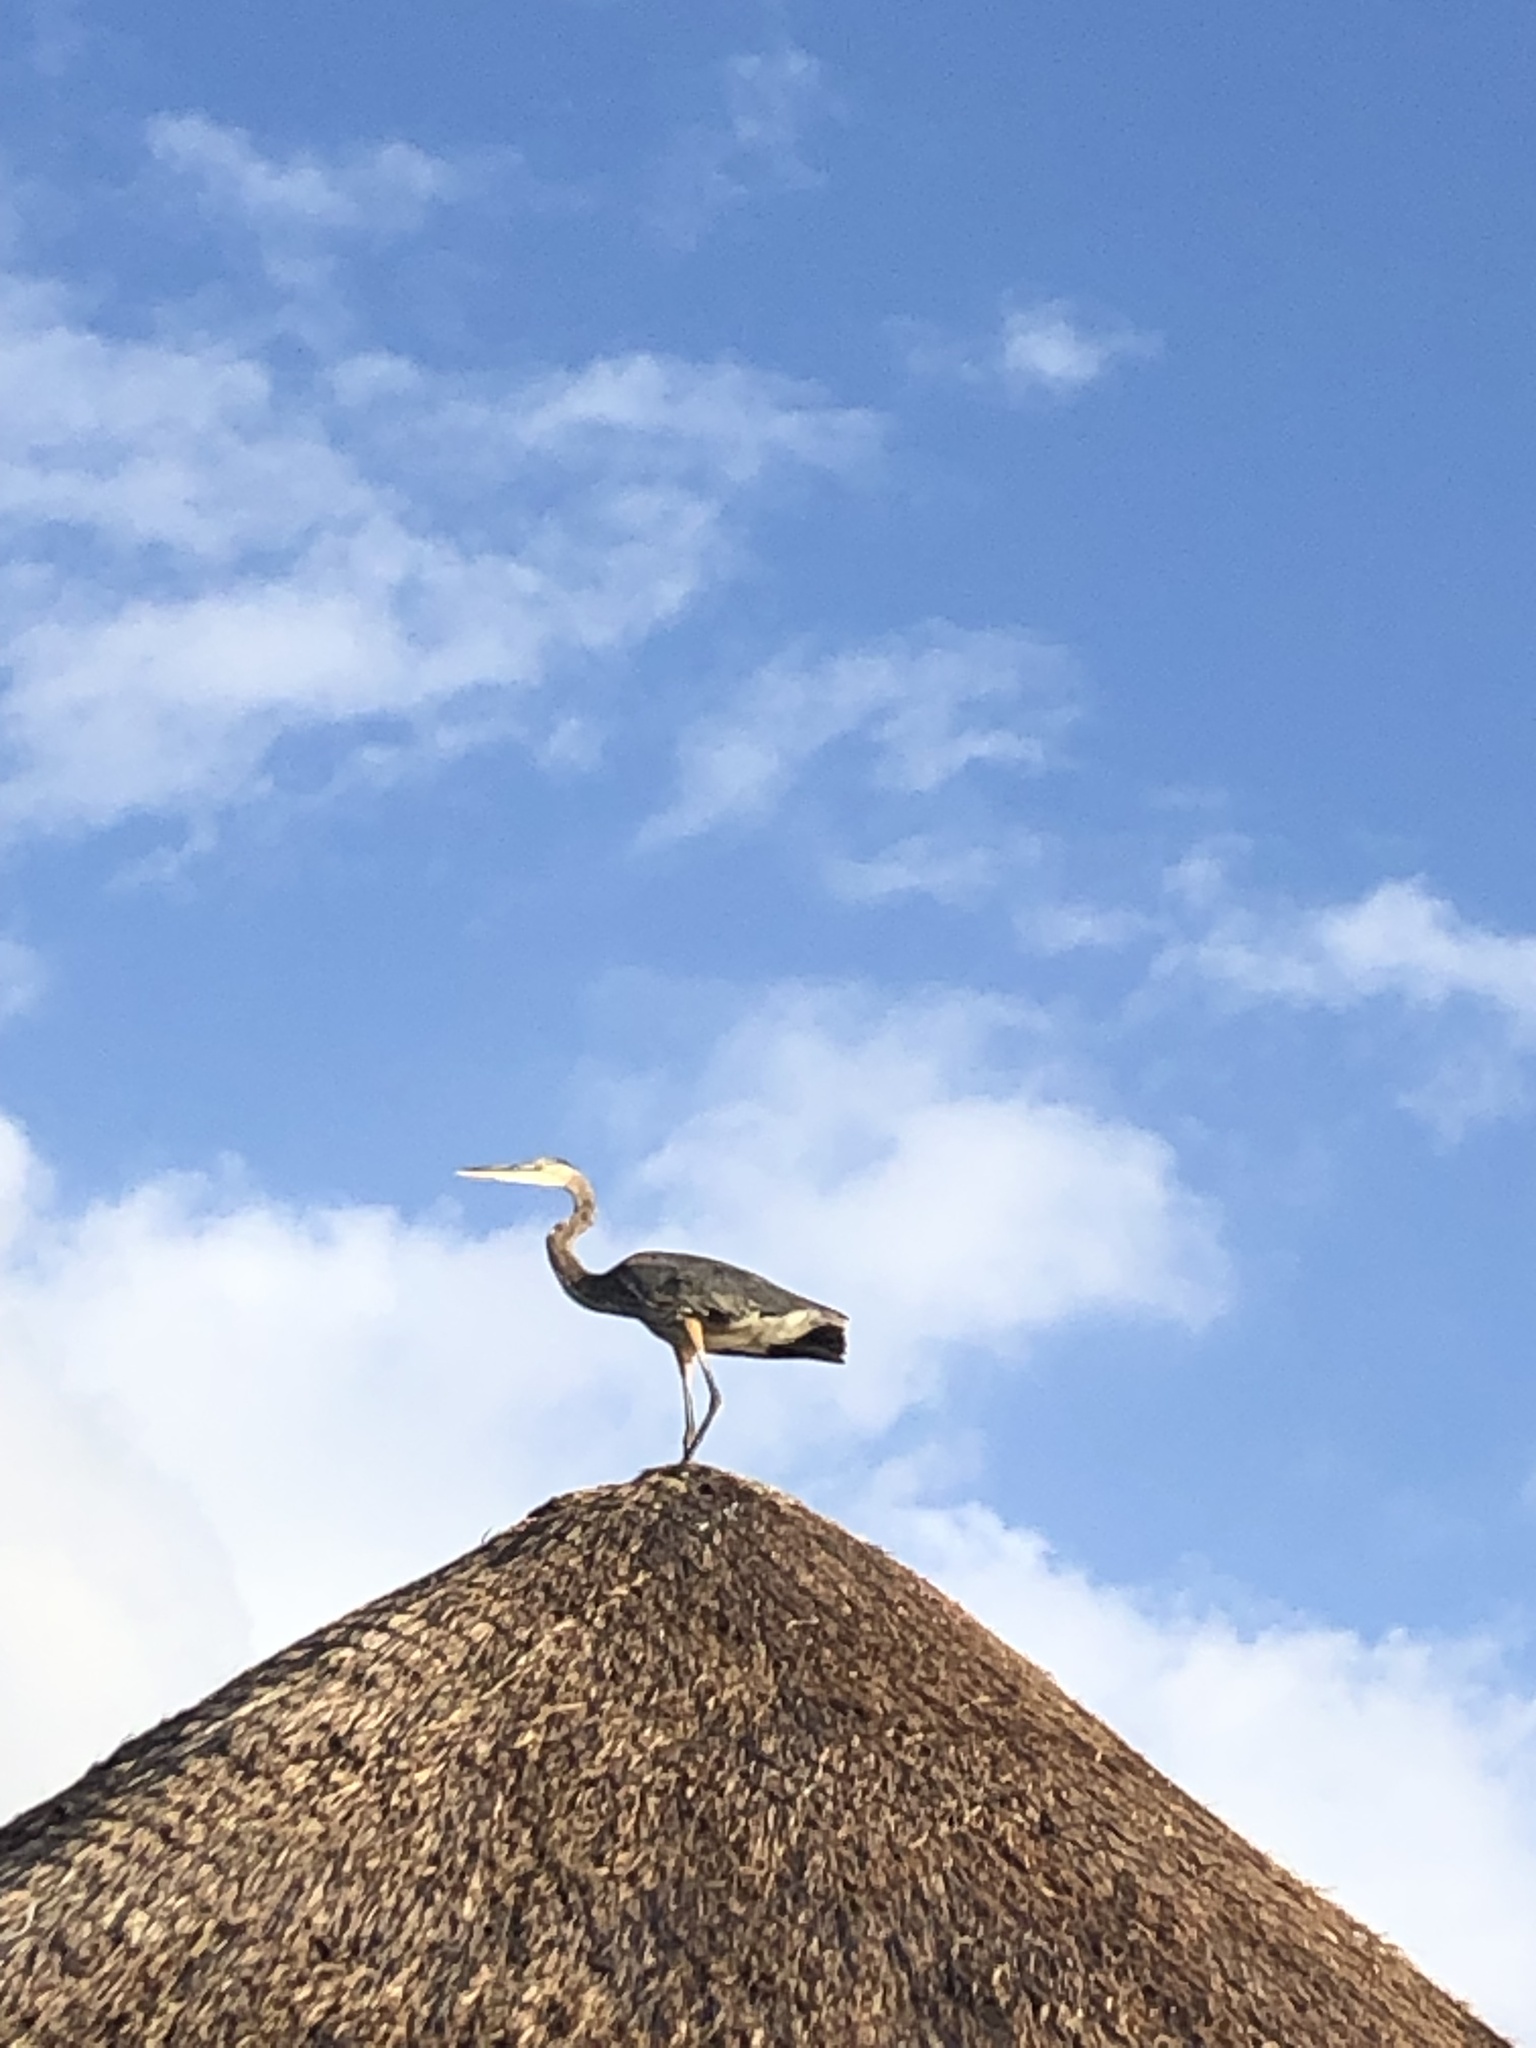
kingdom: Animalia
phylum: Chordata
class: Aves
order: Pelecaniformes
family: Ardeidae
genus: Ardea
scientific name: Ardea herodias
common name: Great blue heron
